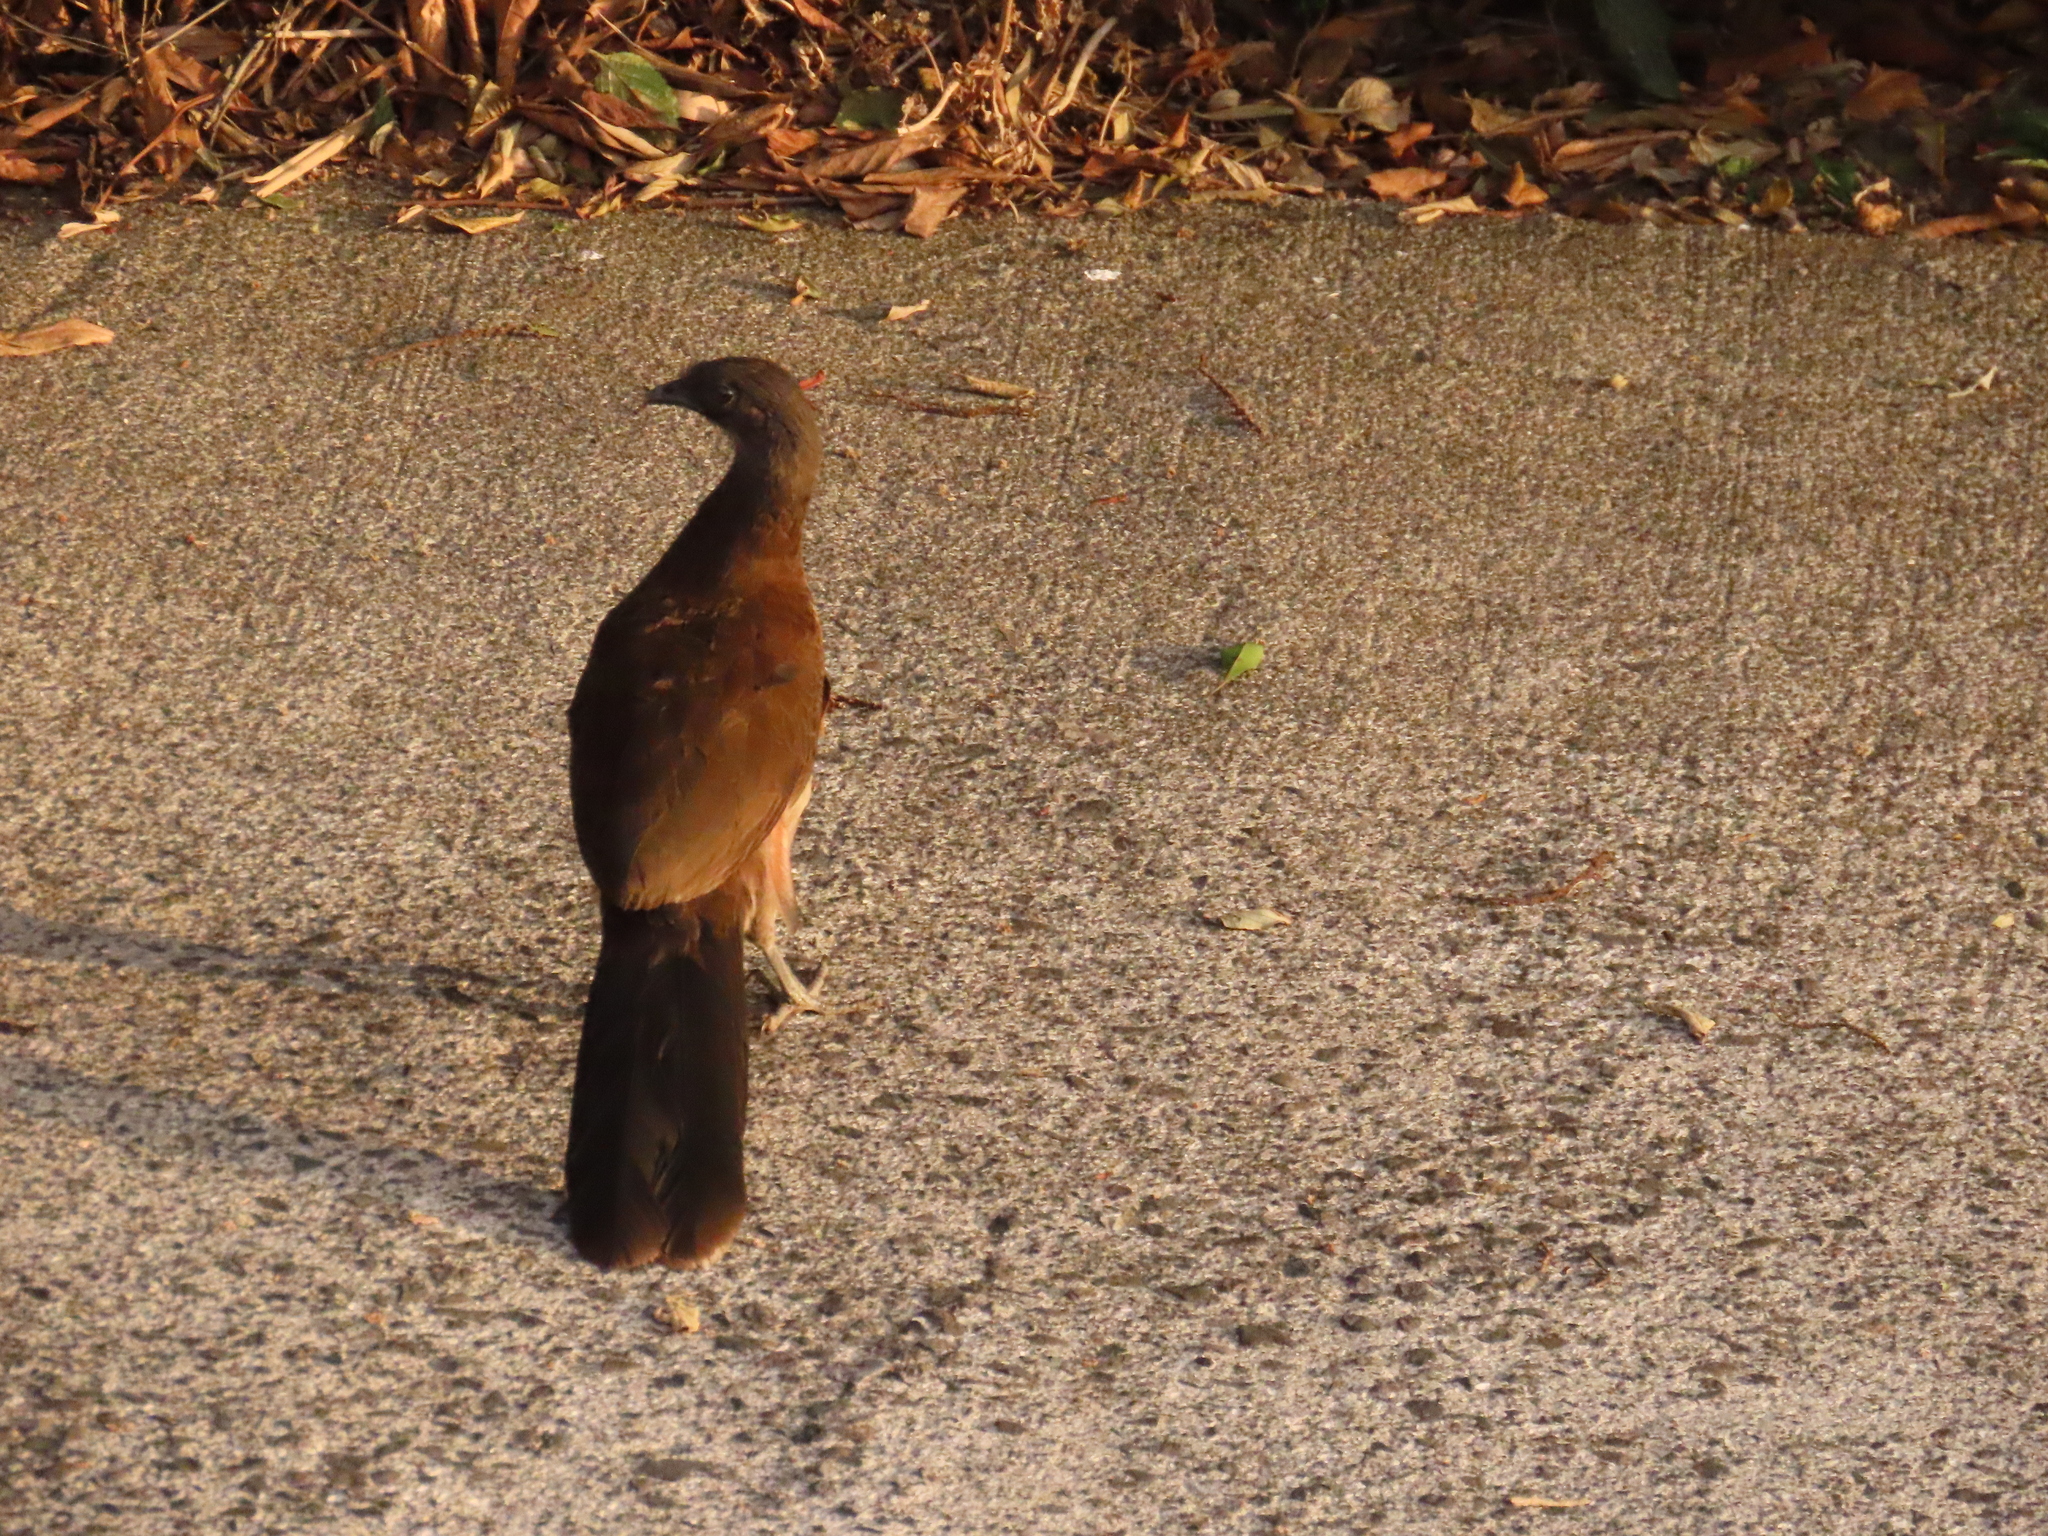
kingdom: Animalia
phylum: Chordata
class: Aves
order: Galliformes
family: Cracidae
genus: Ortalis
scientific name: Ortalis cinereiceps
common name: Grey-headed chachalaca
